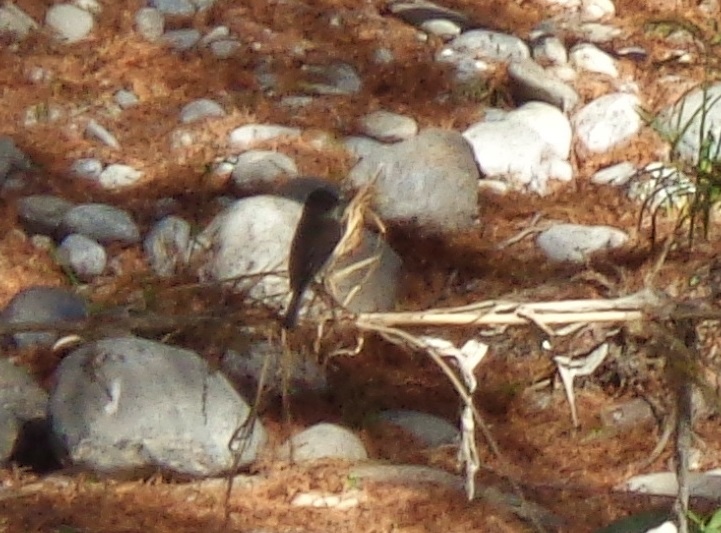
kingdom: Animalia
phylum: Chordata
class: Aves
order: Passeriformes
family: Tyrannidae
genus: Sayornis
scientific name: Sayornis phoebe
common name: Eastern phoebe
